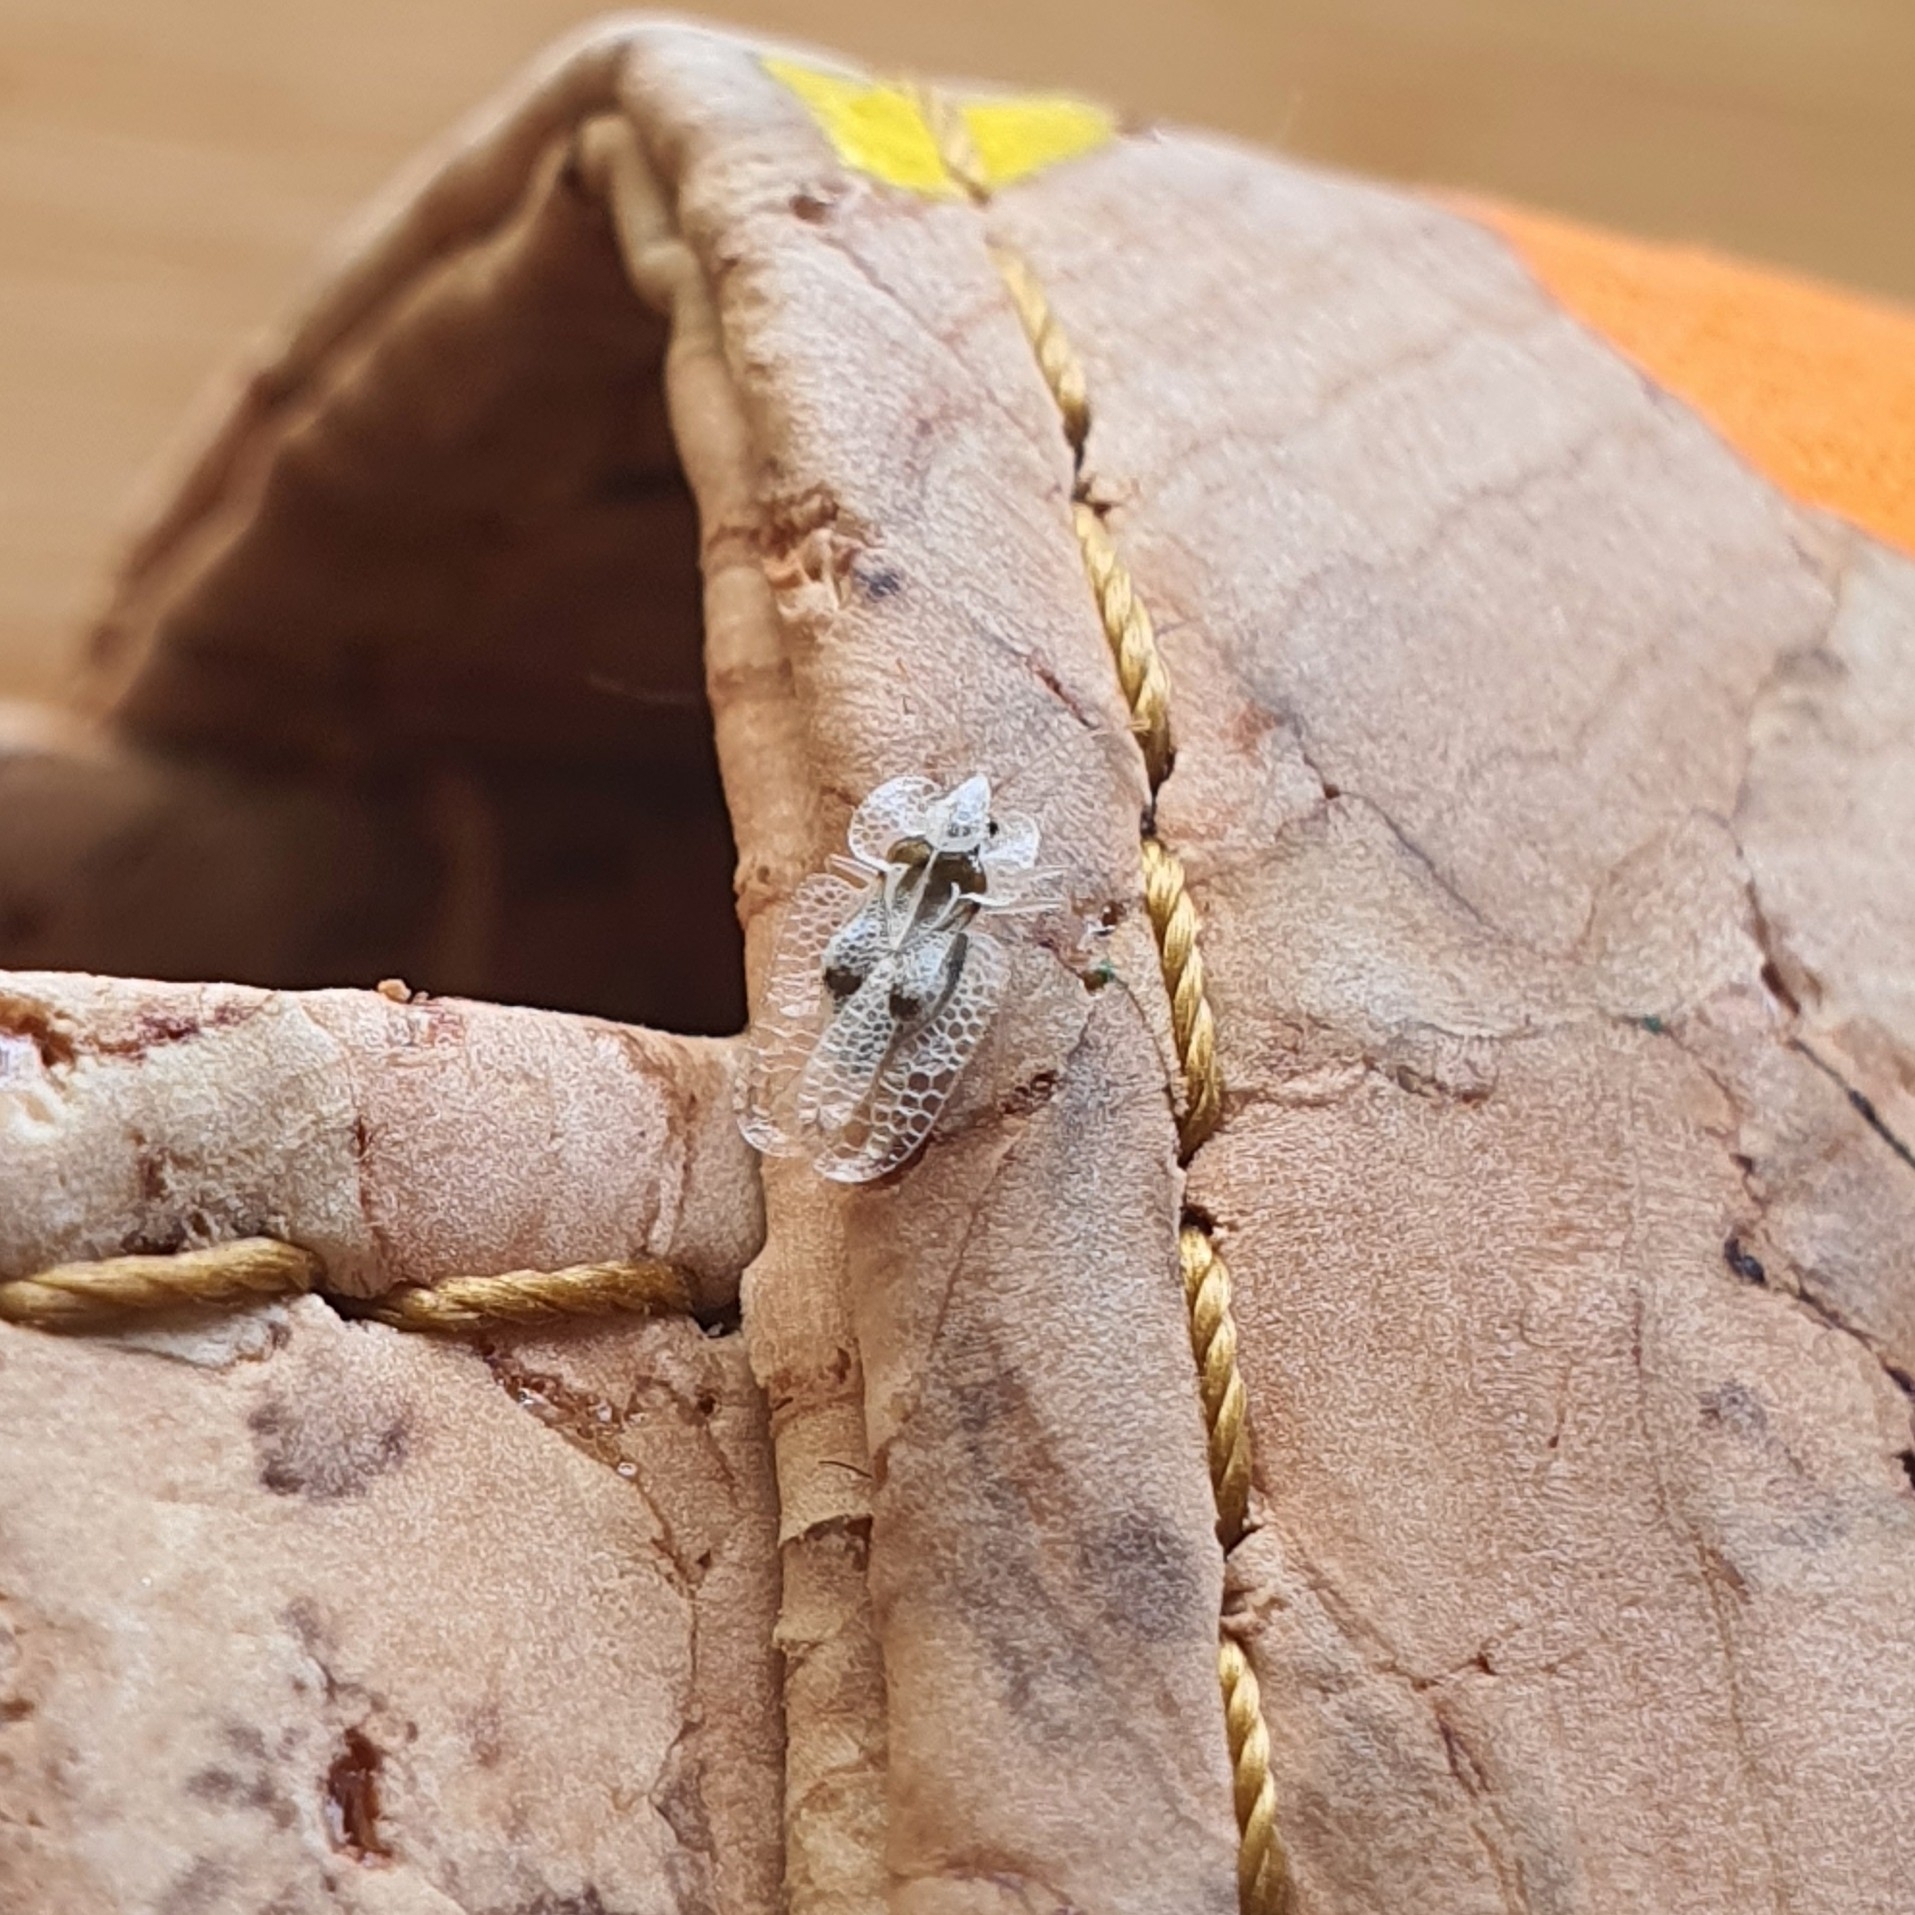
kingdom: Animalia
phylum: Arthropoda
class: Insecta
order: Hemiptera
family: Tingidae
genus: Corythucha
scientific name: Corythucha ciliata
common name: Sycamore lace bug
